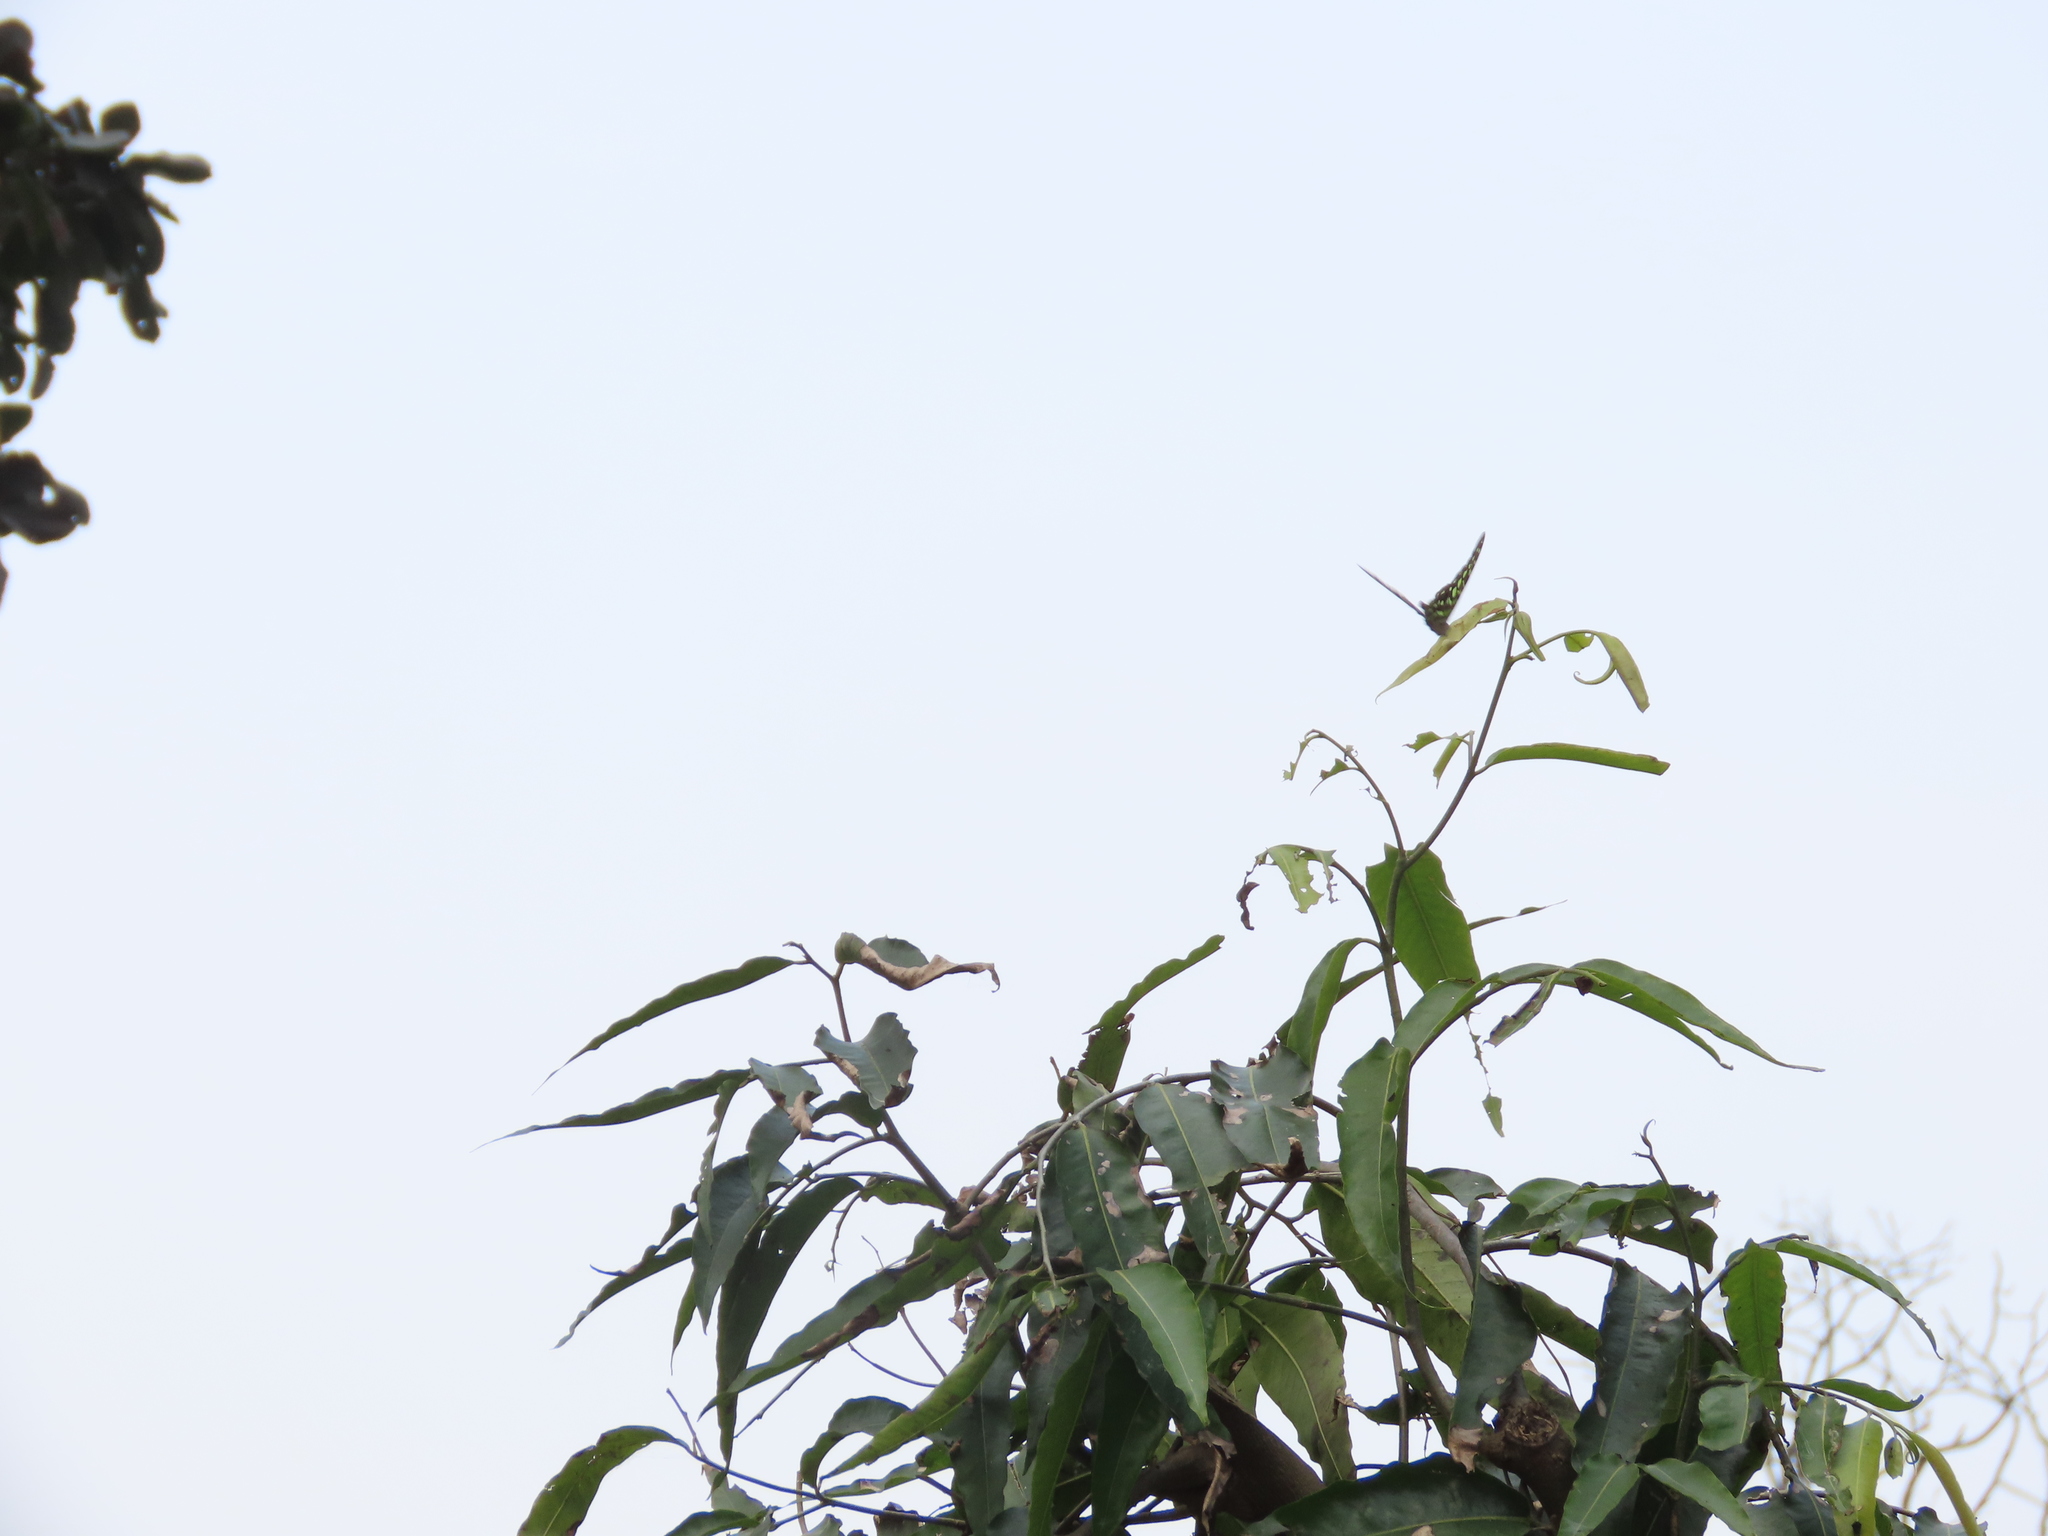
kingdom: Animalia
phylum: Arthropoda
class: Insecta
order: Lepidoptera
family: Papilionidae
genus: Graphium
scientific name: Graphium agamemnon
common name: Tailed jay
